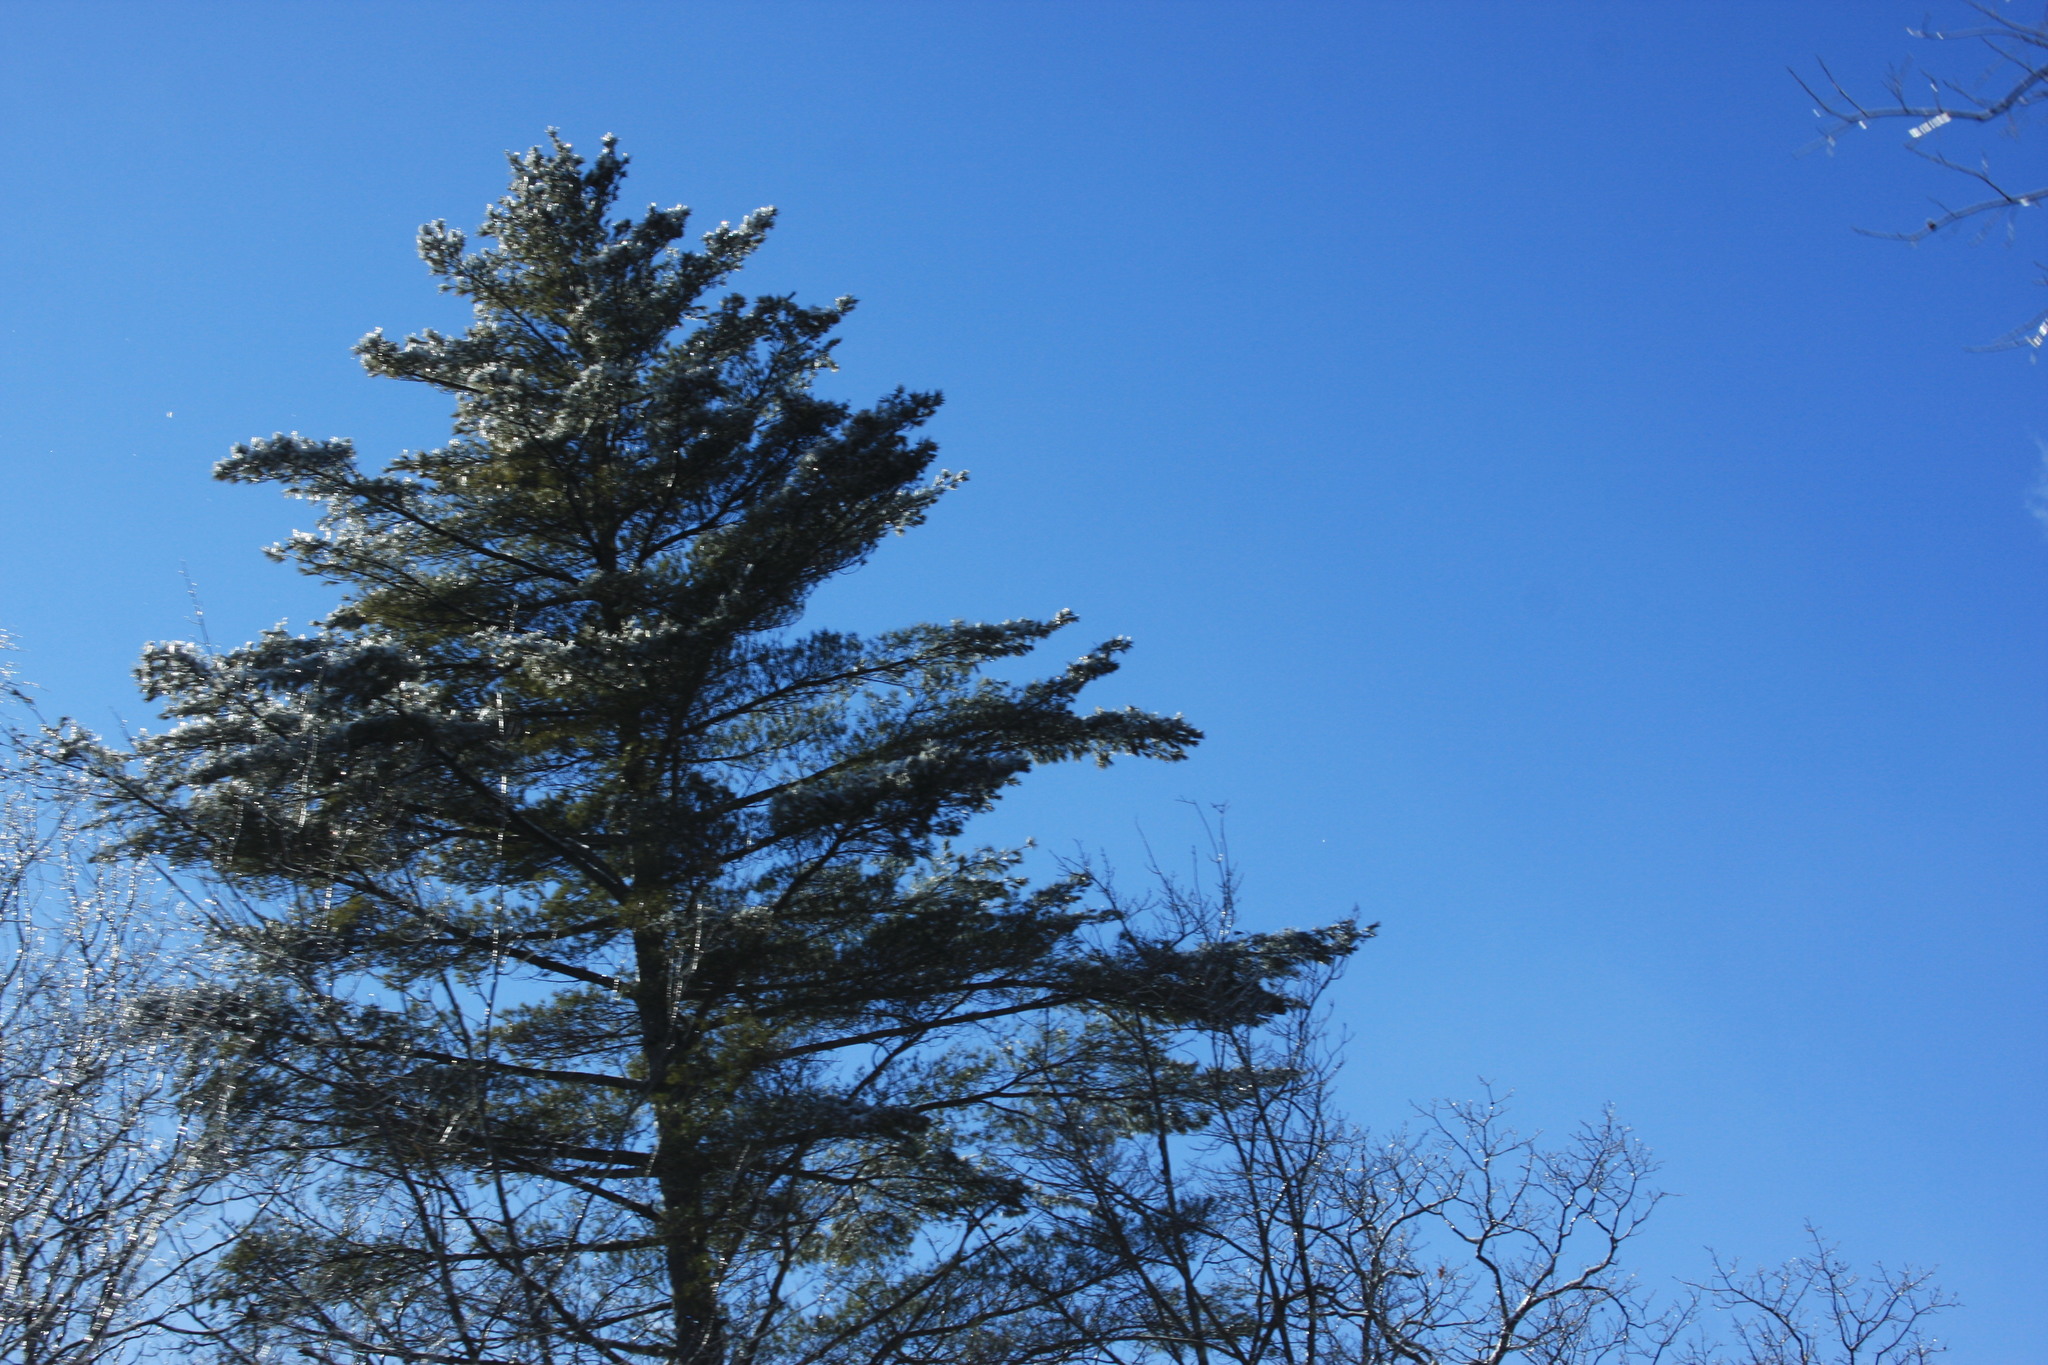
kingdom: Plantae
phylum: Tracheophyta
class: Pinopsida
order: Pinales
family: Pinaceae
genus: Pinus
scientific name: Pinus strobus
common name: Weymouth pine
